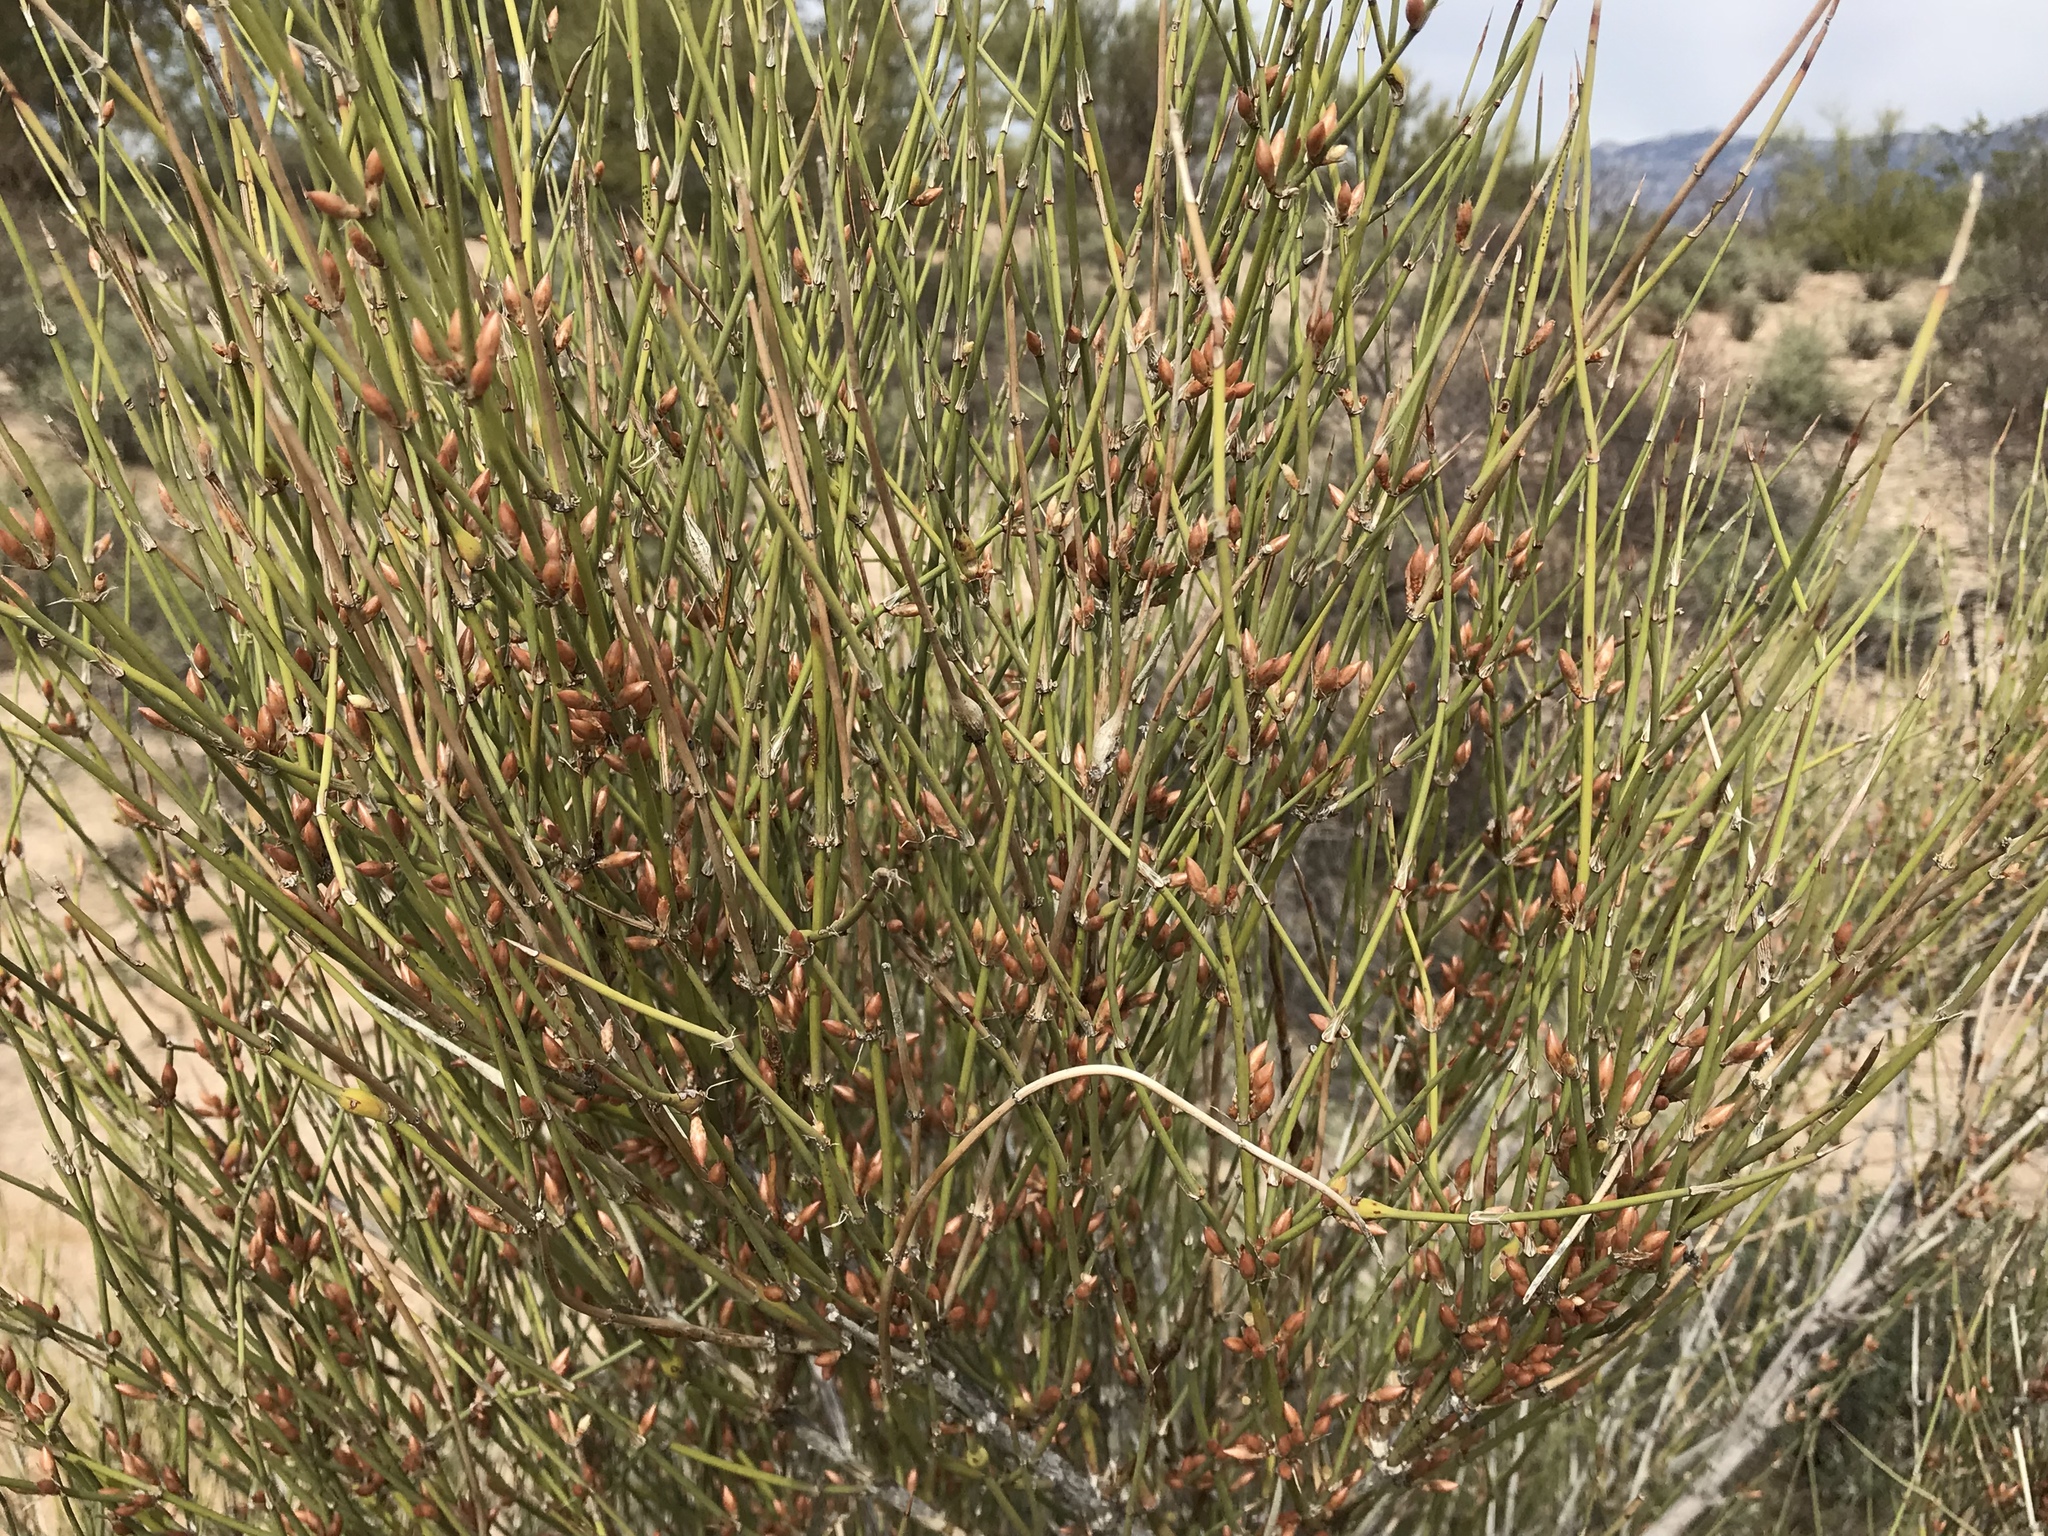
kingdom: Plantae
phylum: Tracheophyta
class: Gnetopsida
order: Ephedrales
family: Ephedraceae
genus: Ephedra
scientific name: Ephedra trifurca
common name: Mexican-tea
